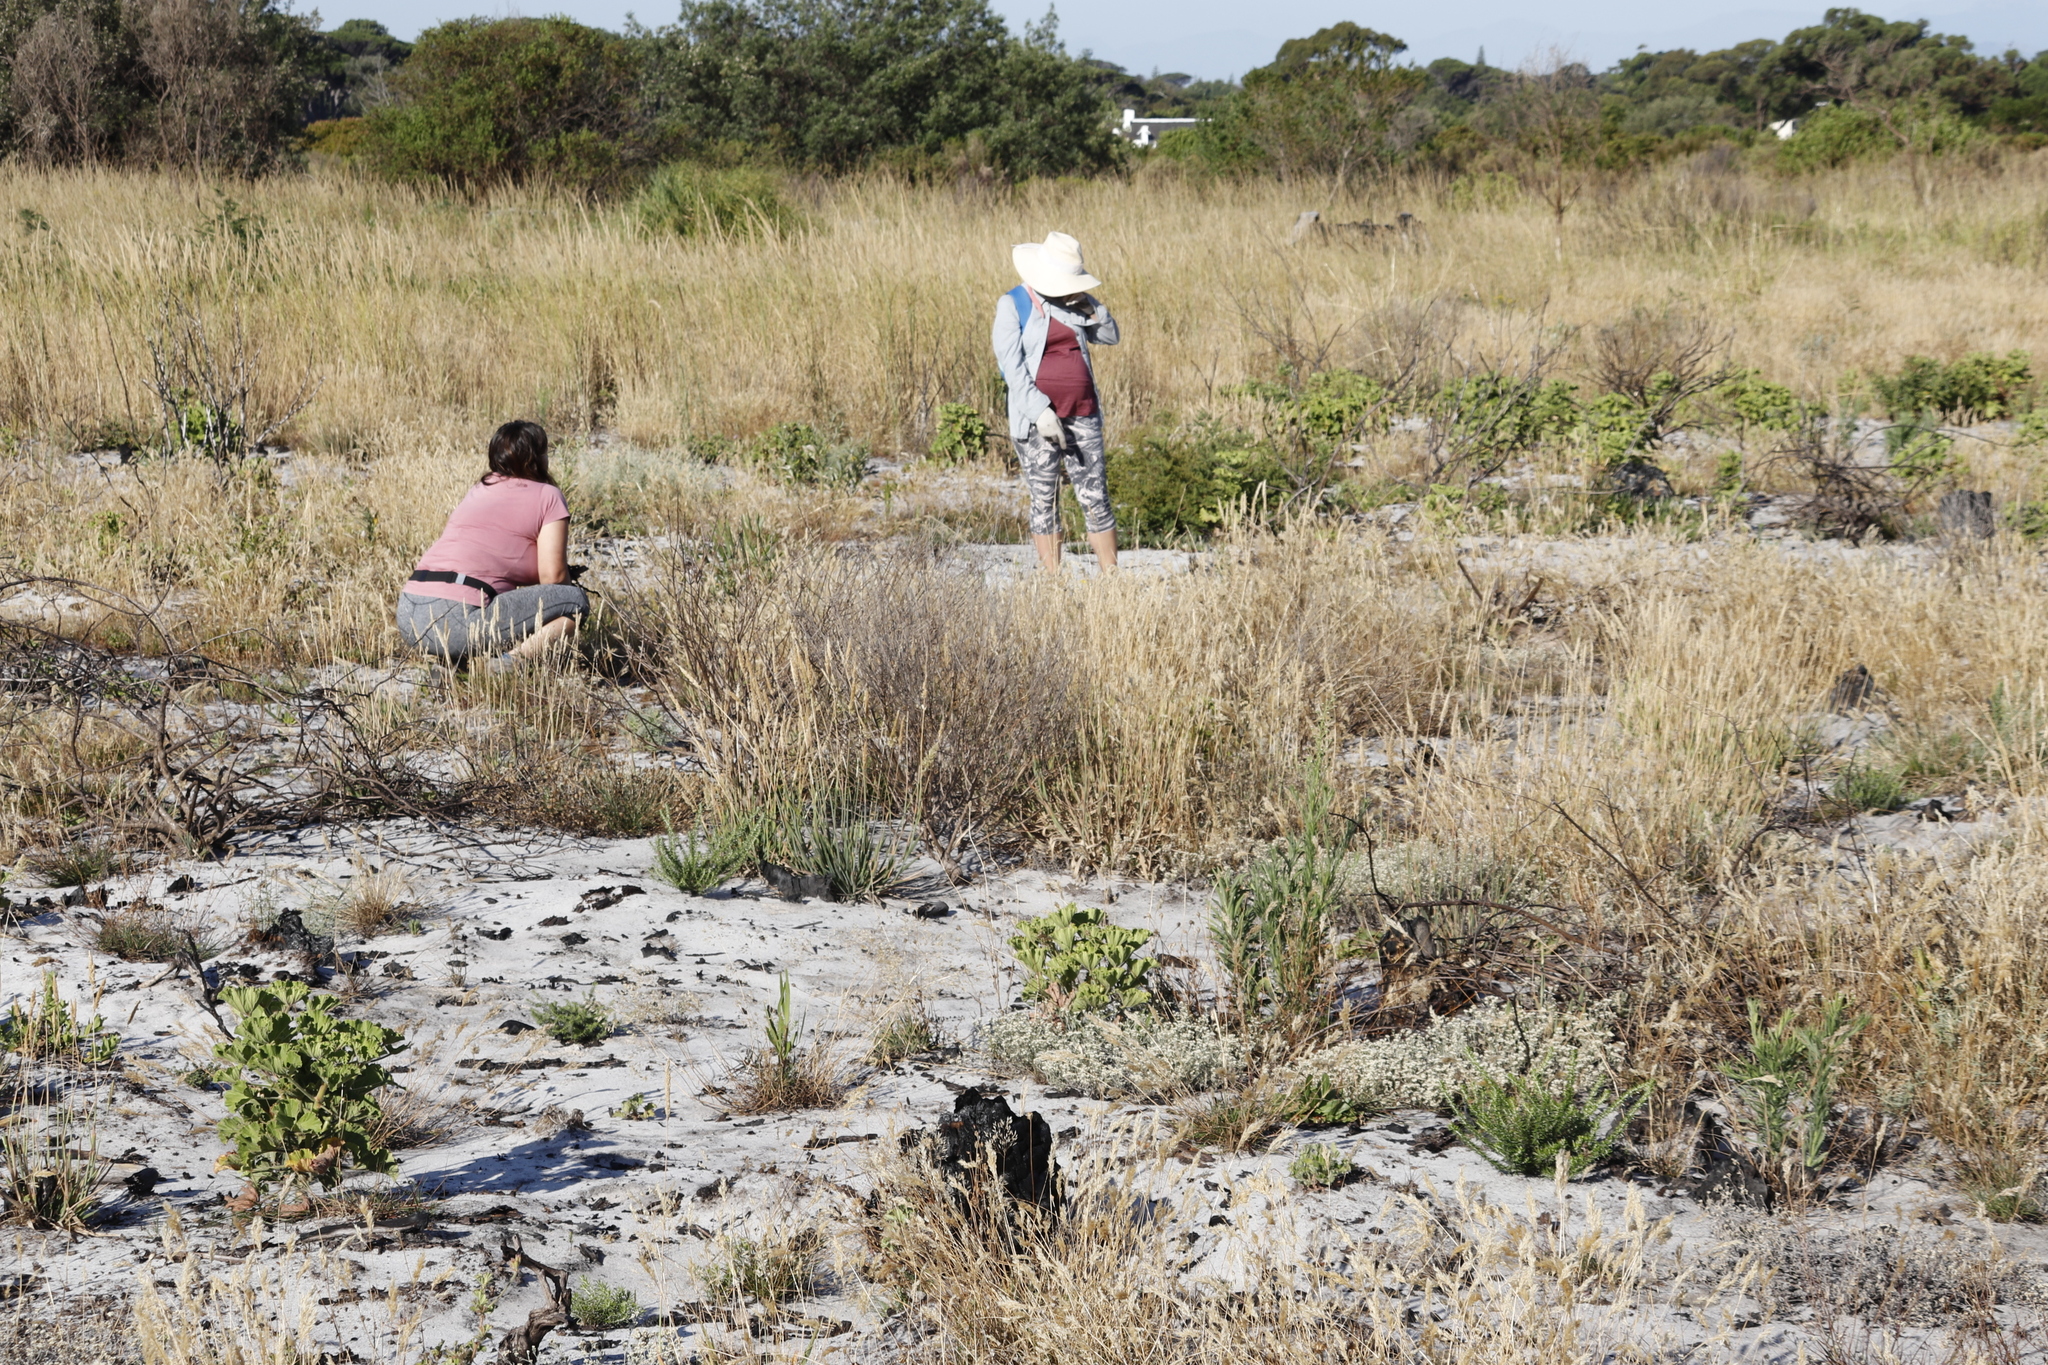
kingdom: Plantae
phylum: Tracheophyta
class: Magnoliopsida
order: Geraniales
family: Geraniaceae
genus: Pelargonium
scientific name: Pelargonium cucullatum
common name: Tree pelargonium
